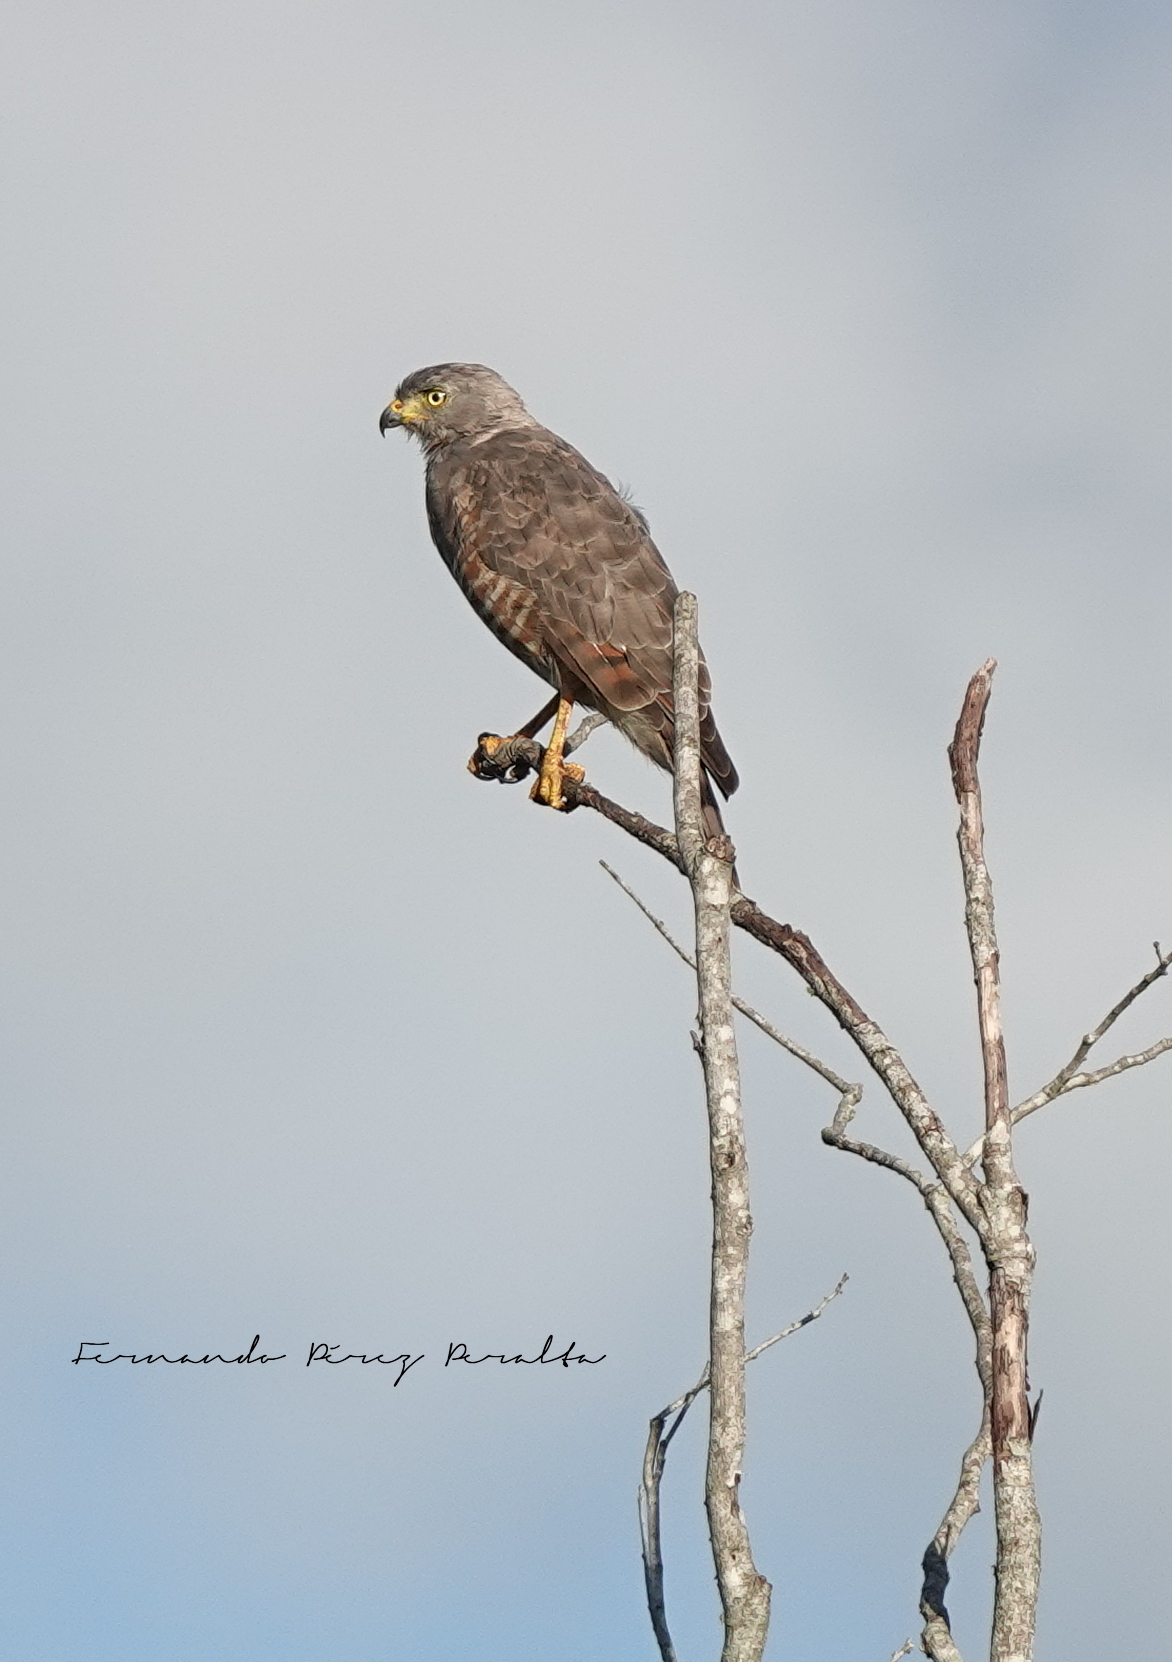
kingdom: Animalia
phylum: Chordata
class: Aves
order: Accipitriformes
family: Accipitridae
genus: Rupornis
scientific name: Rupornis magnirostris
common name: Roadside hawk
